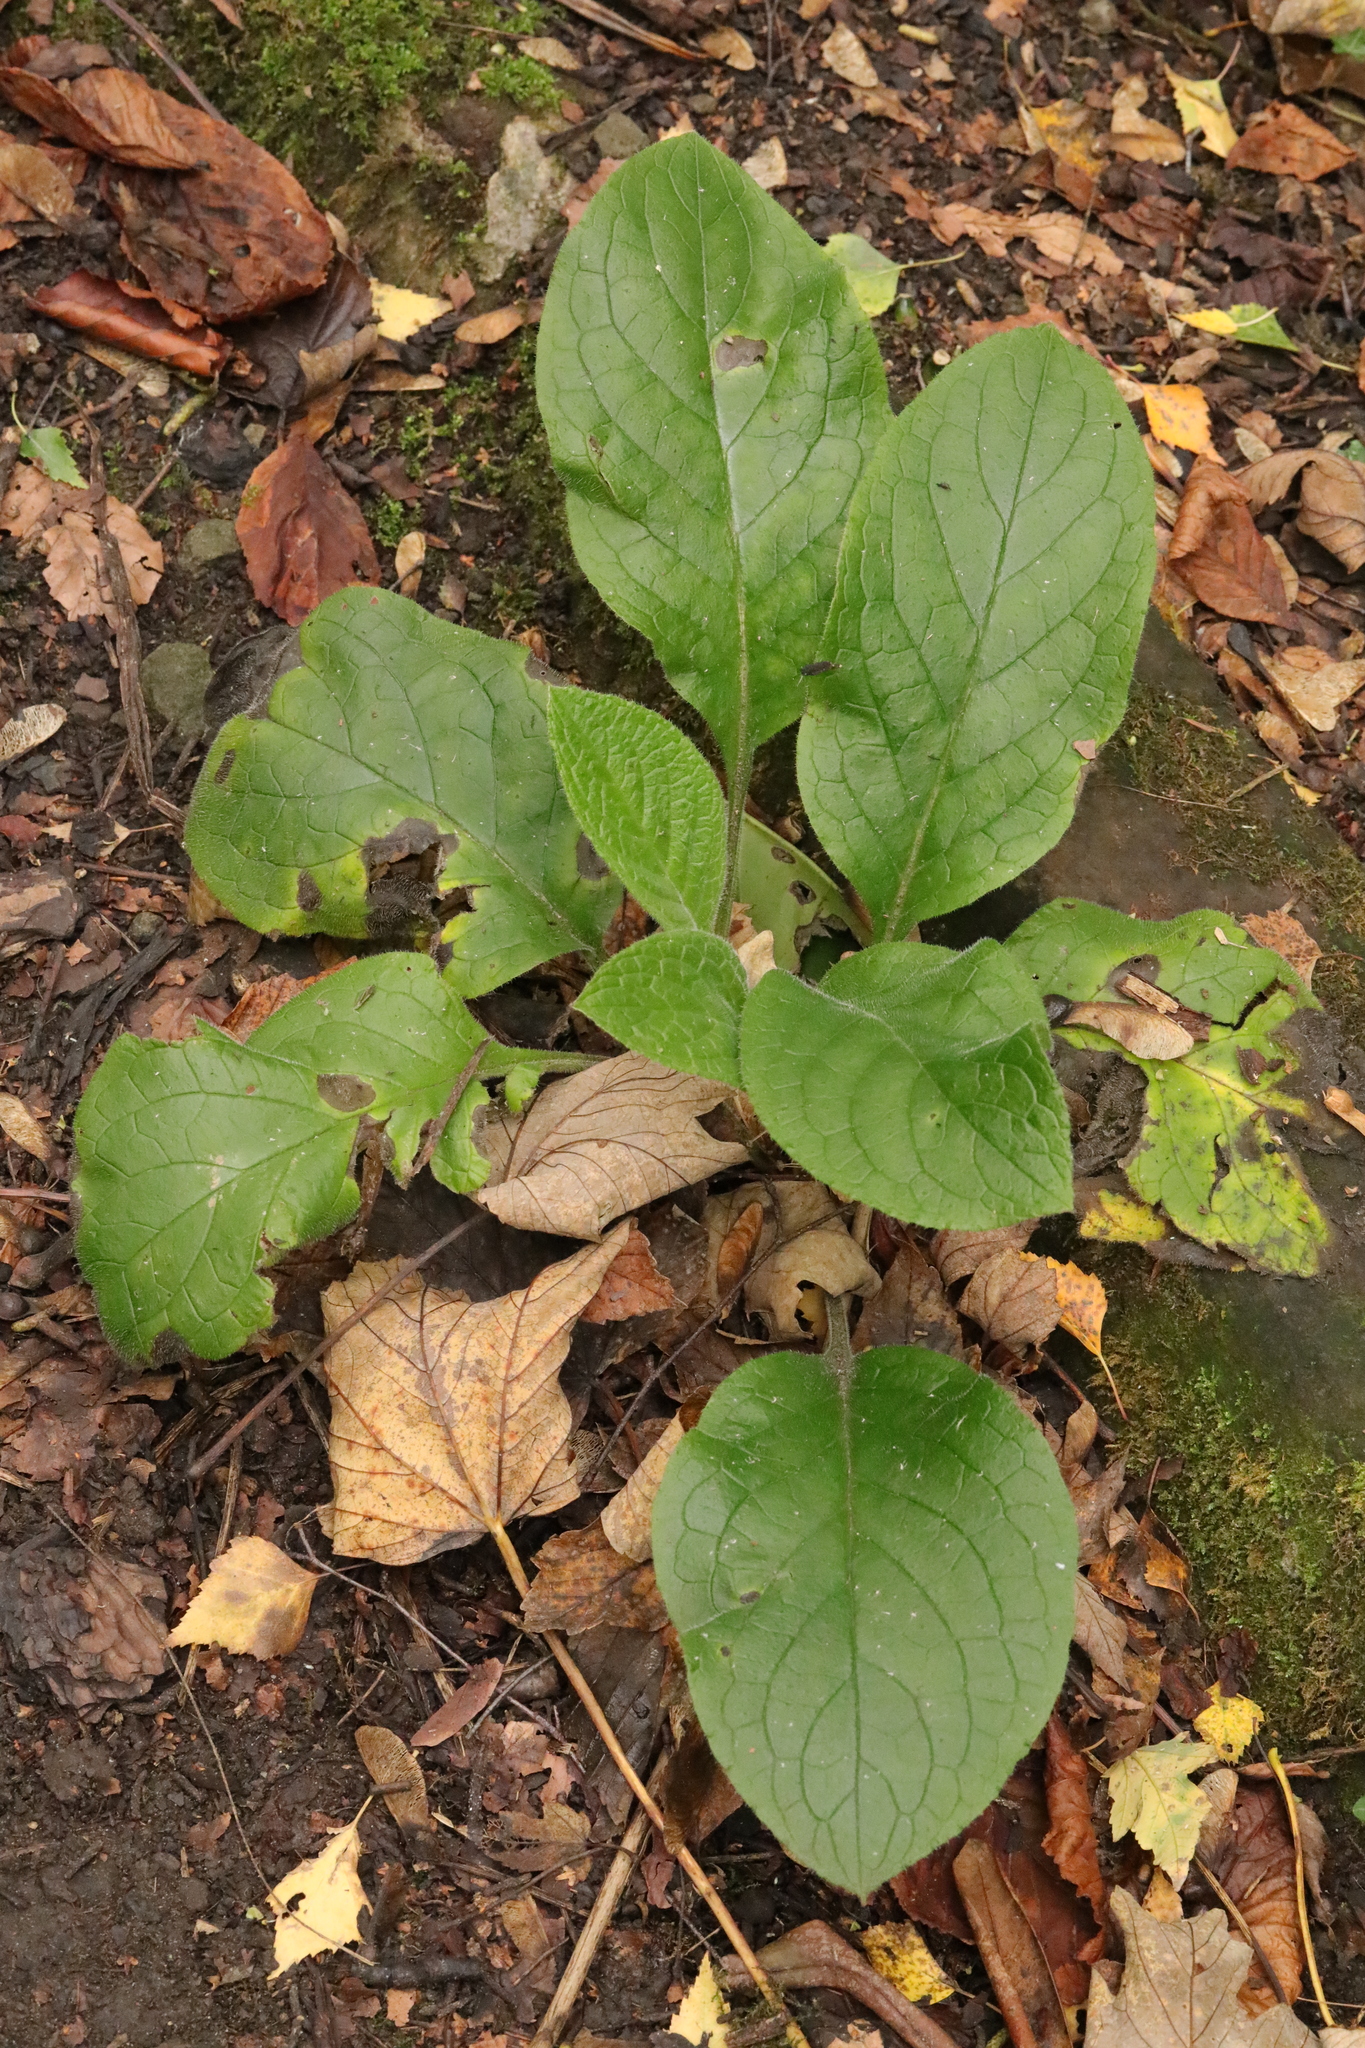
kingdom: Plantae
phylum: Tracheophyta
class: Magnoliopsida
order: Boraginales
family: Boraginaceae
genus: Pentaglottis
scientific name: Pentaglottis sempervirens
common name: Green alkanet
